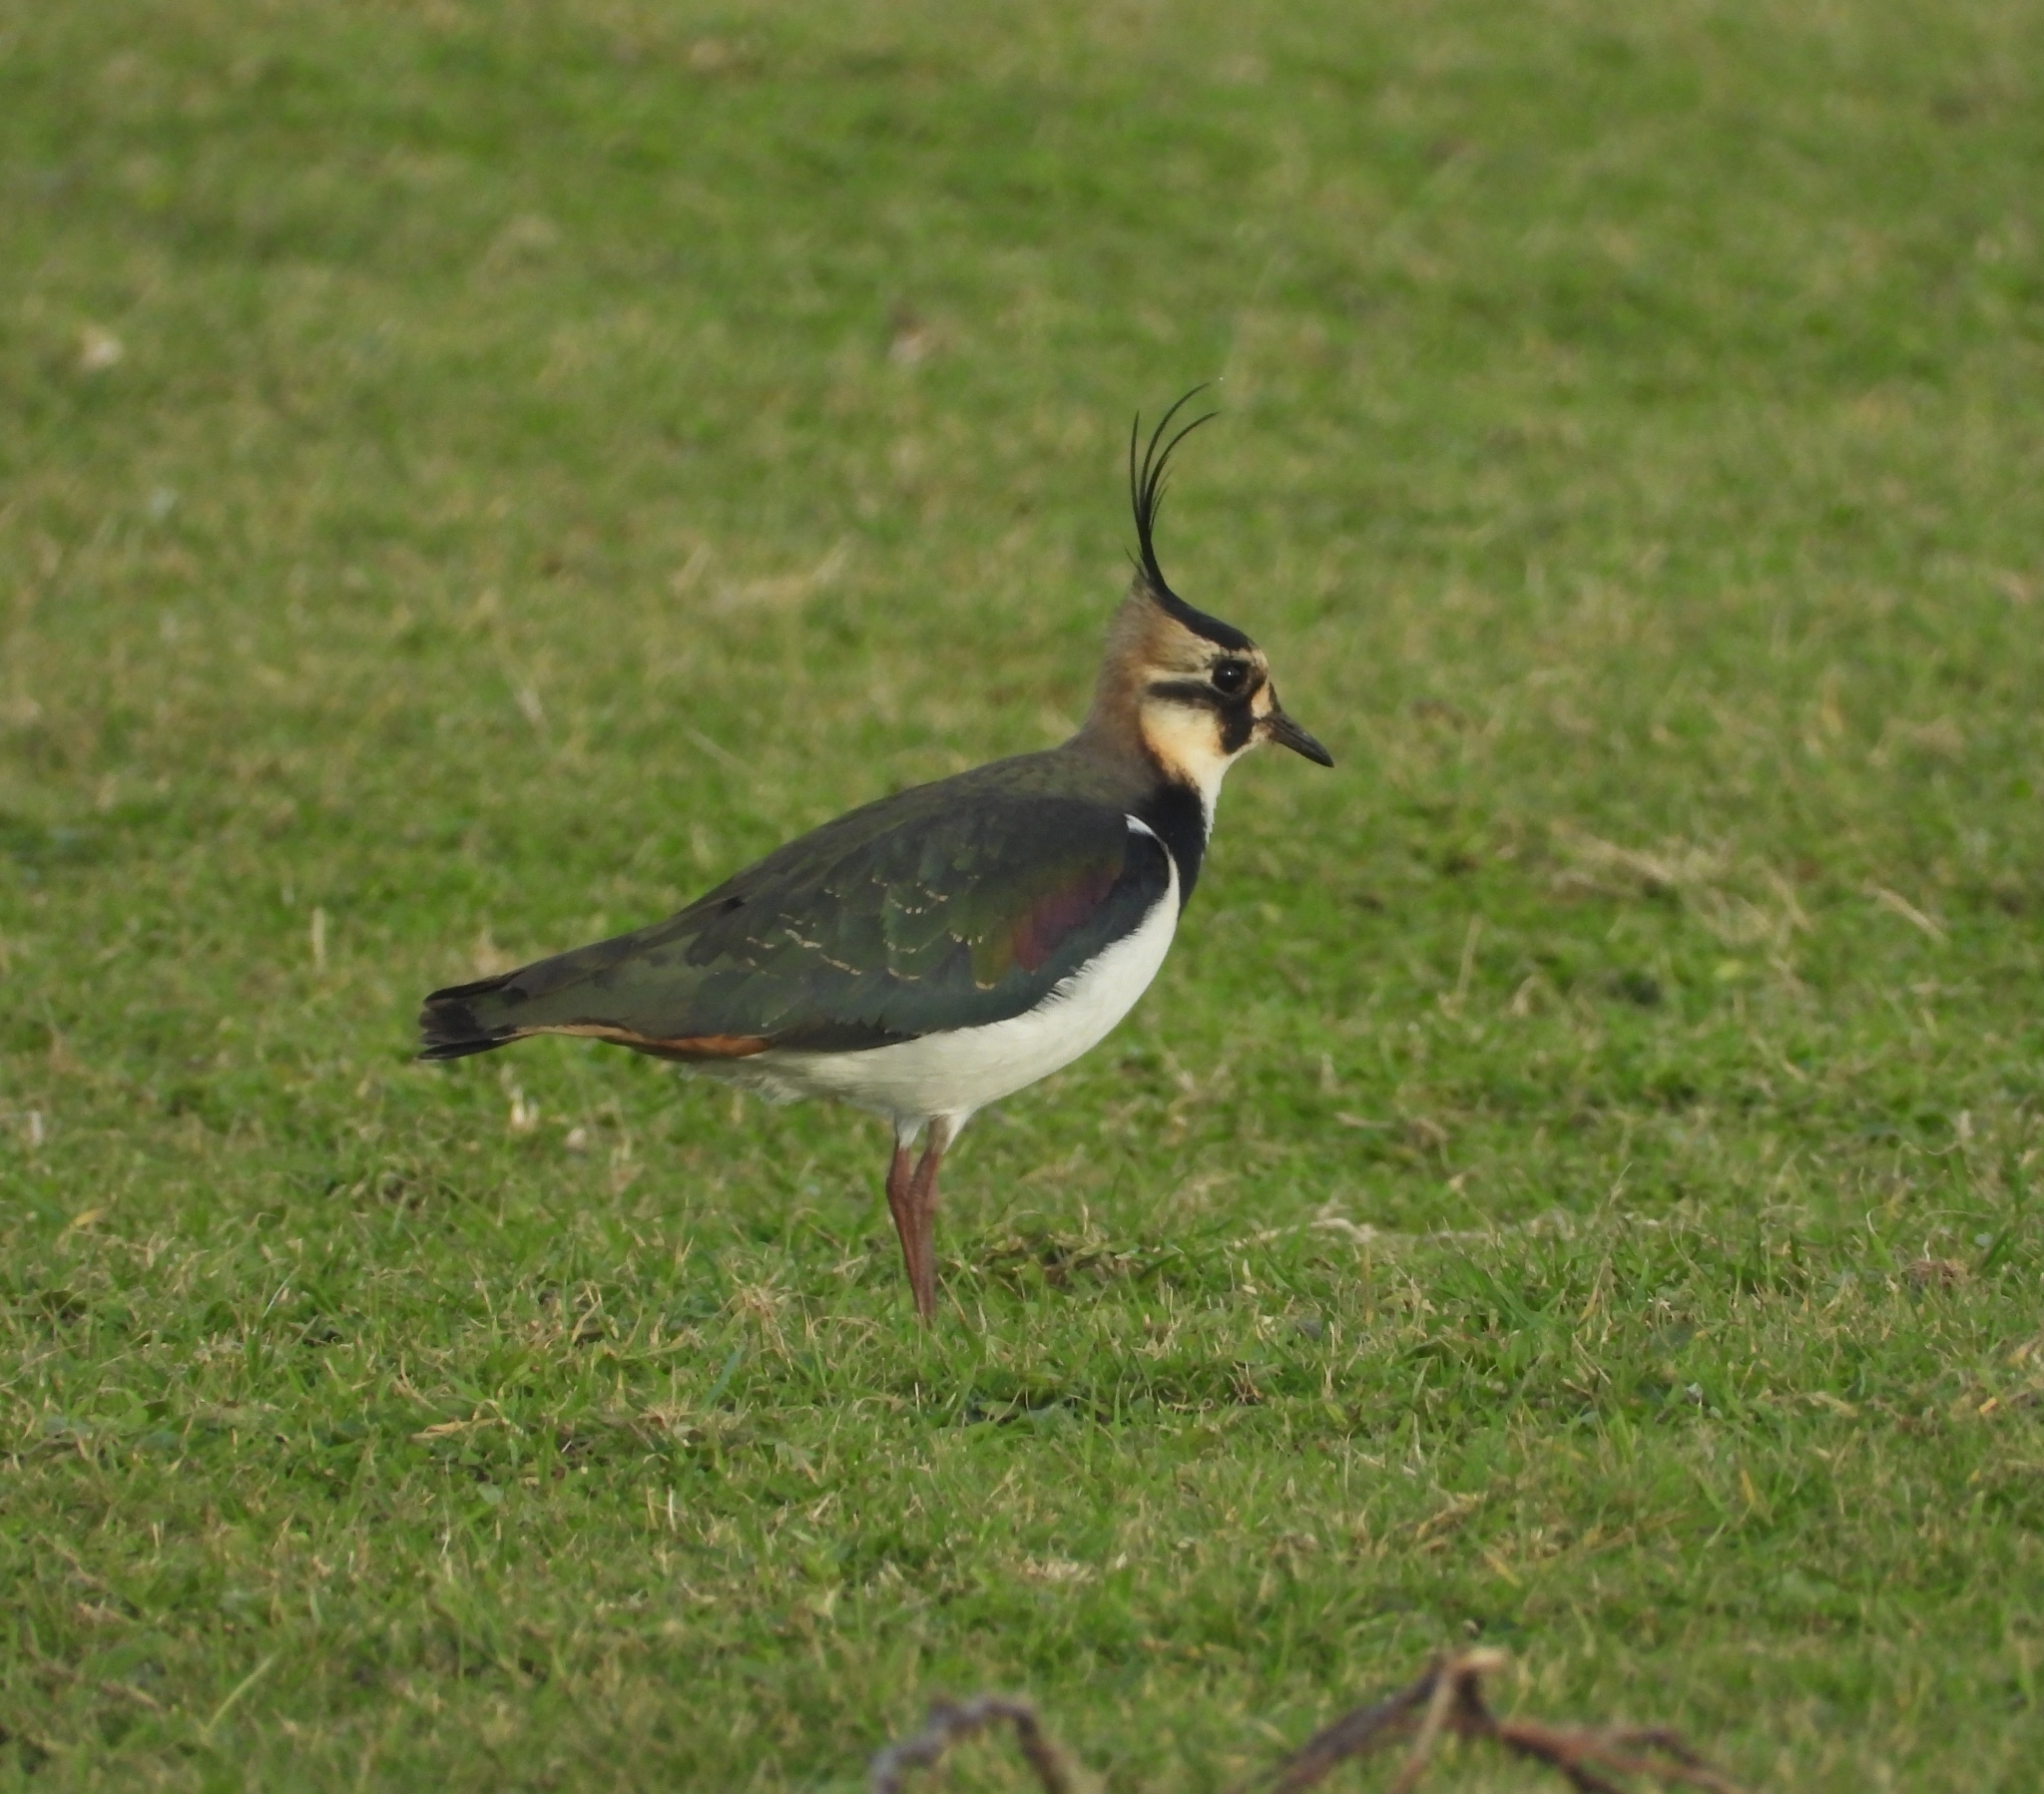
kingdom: Animalia
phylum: Chordata
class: Aves
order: Charadriiformes
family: Charadriidae
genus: Vanellus
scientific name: Vanellus vanellus
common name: Northern lapwing
